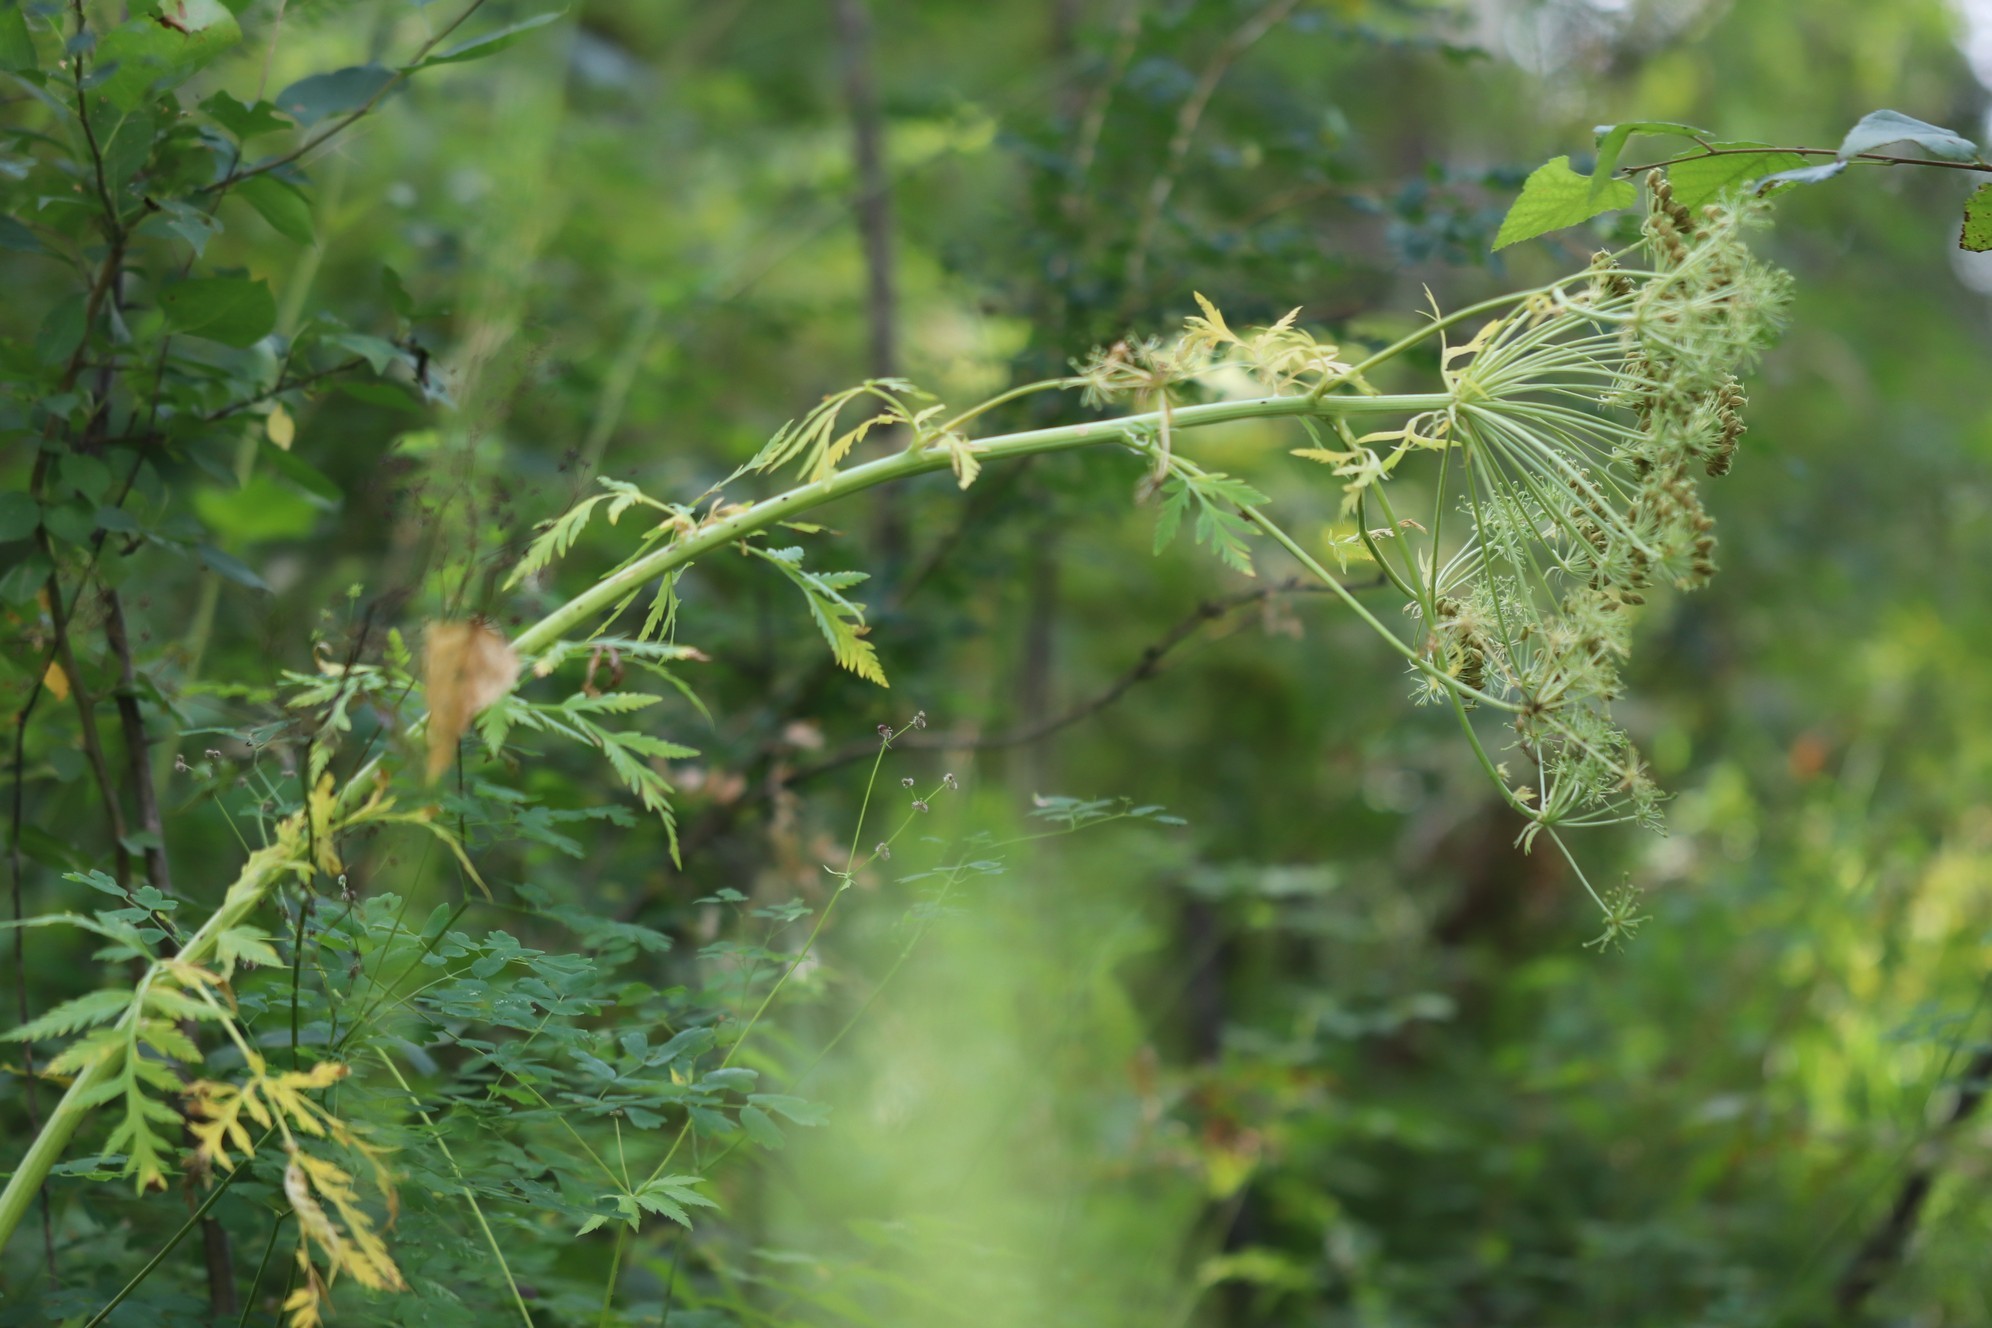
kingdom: Plantae
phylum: Tracheophyta
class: Magnoliopsida
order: Apiales
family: Apiaceae
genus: Pleurospermum
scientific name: Pleurospermum uralense
